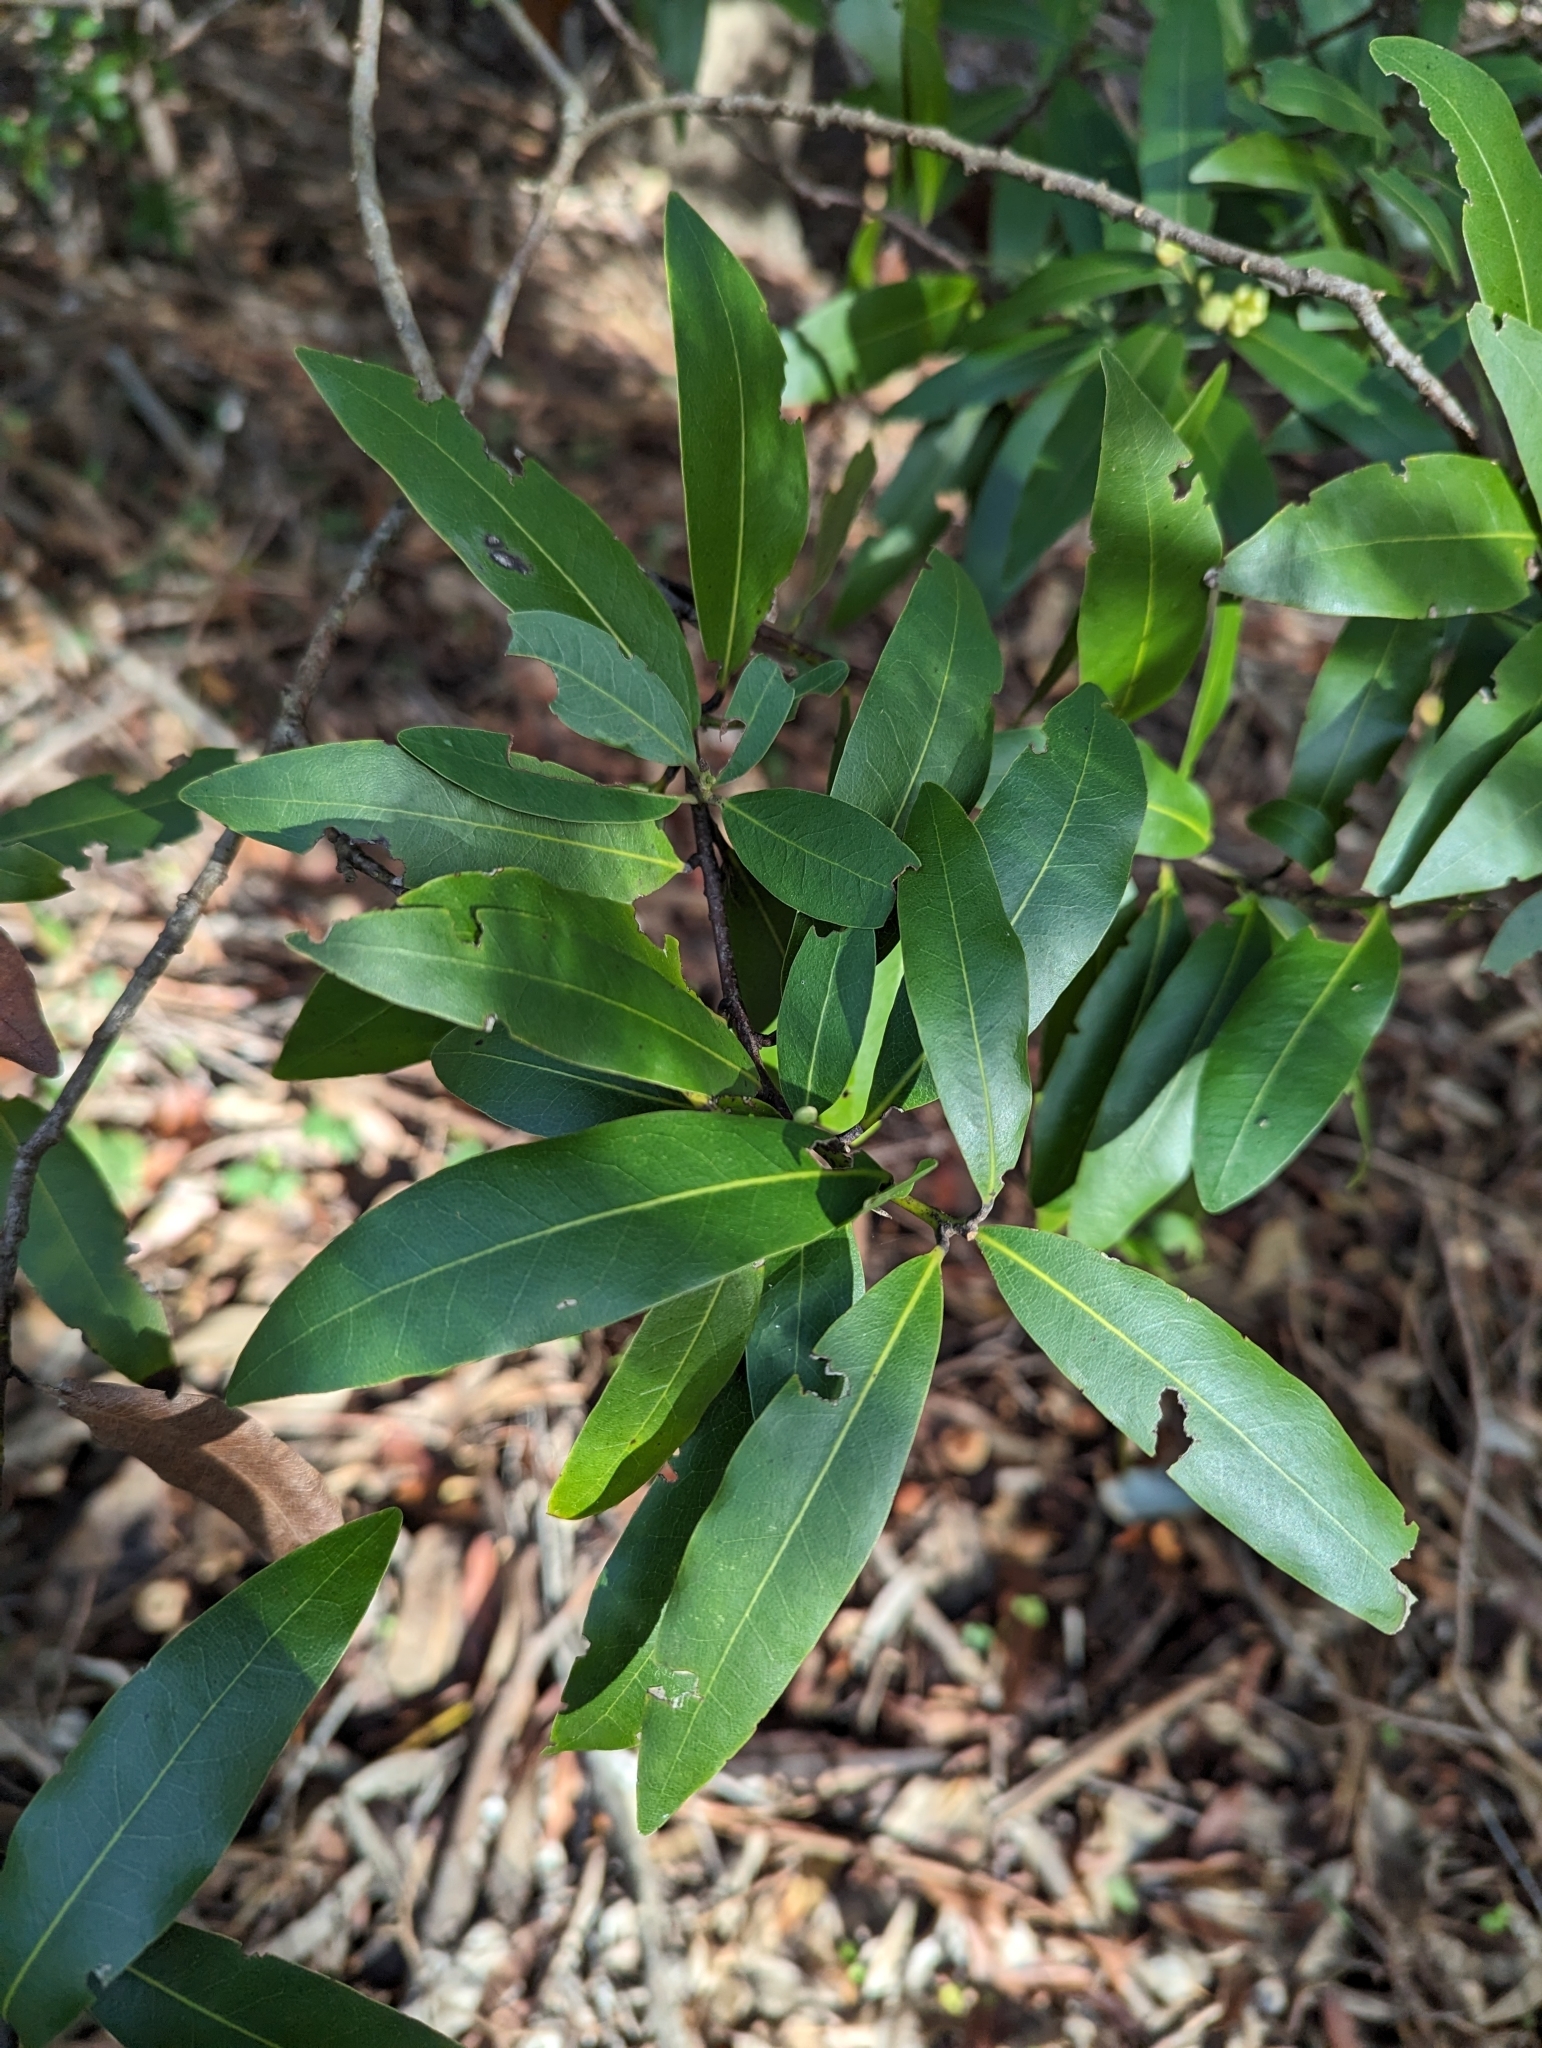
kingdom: Plantae
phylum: Tracheophyta
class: Magnoliopsida
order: Laurales
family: Lauraceae
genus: Umbellularia
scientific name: Umbellularia californica
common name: California bay
